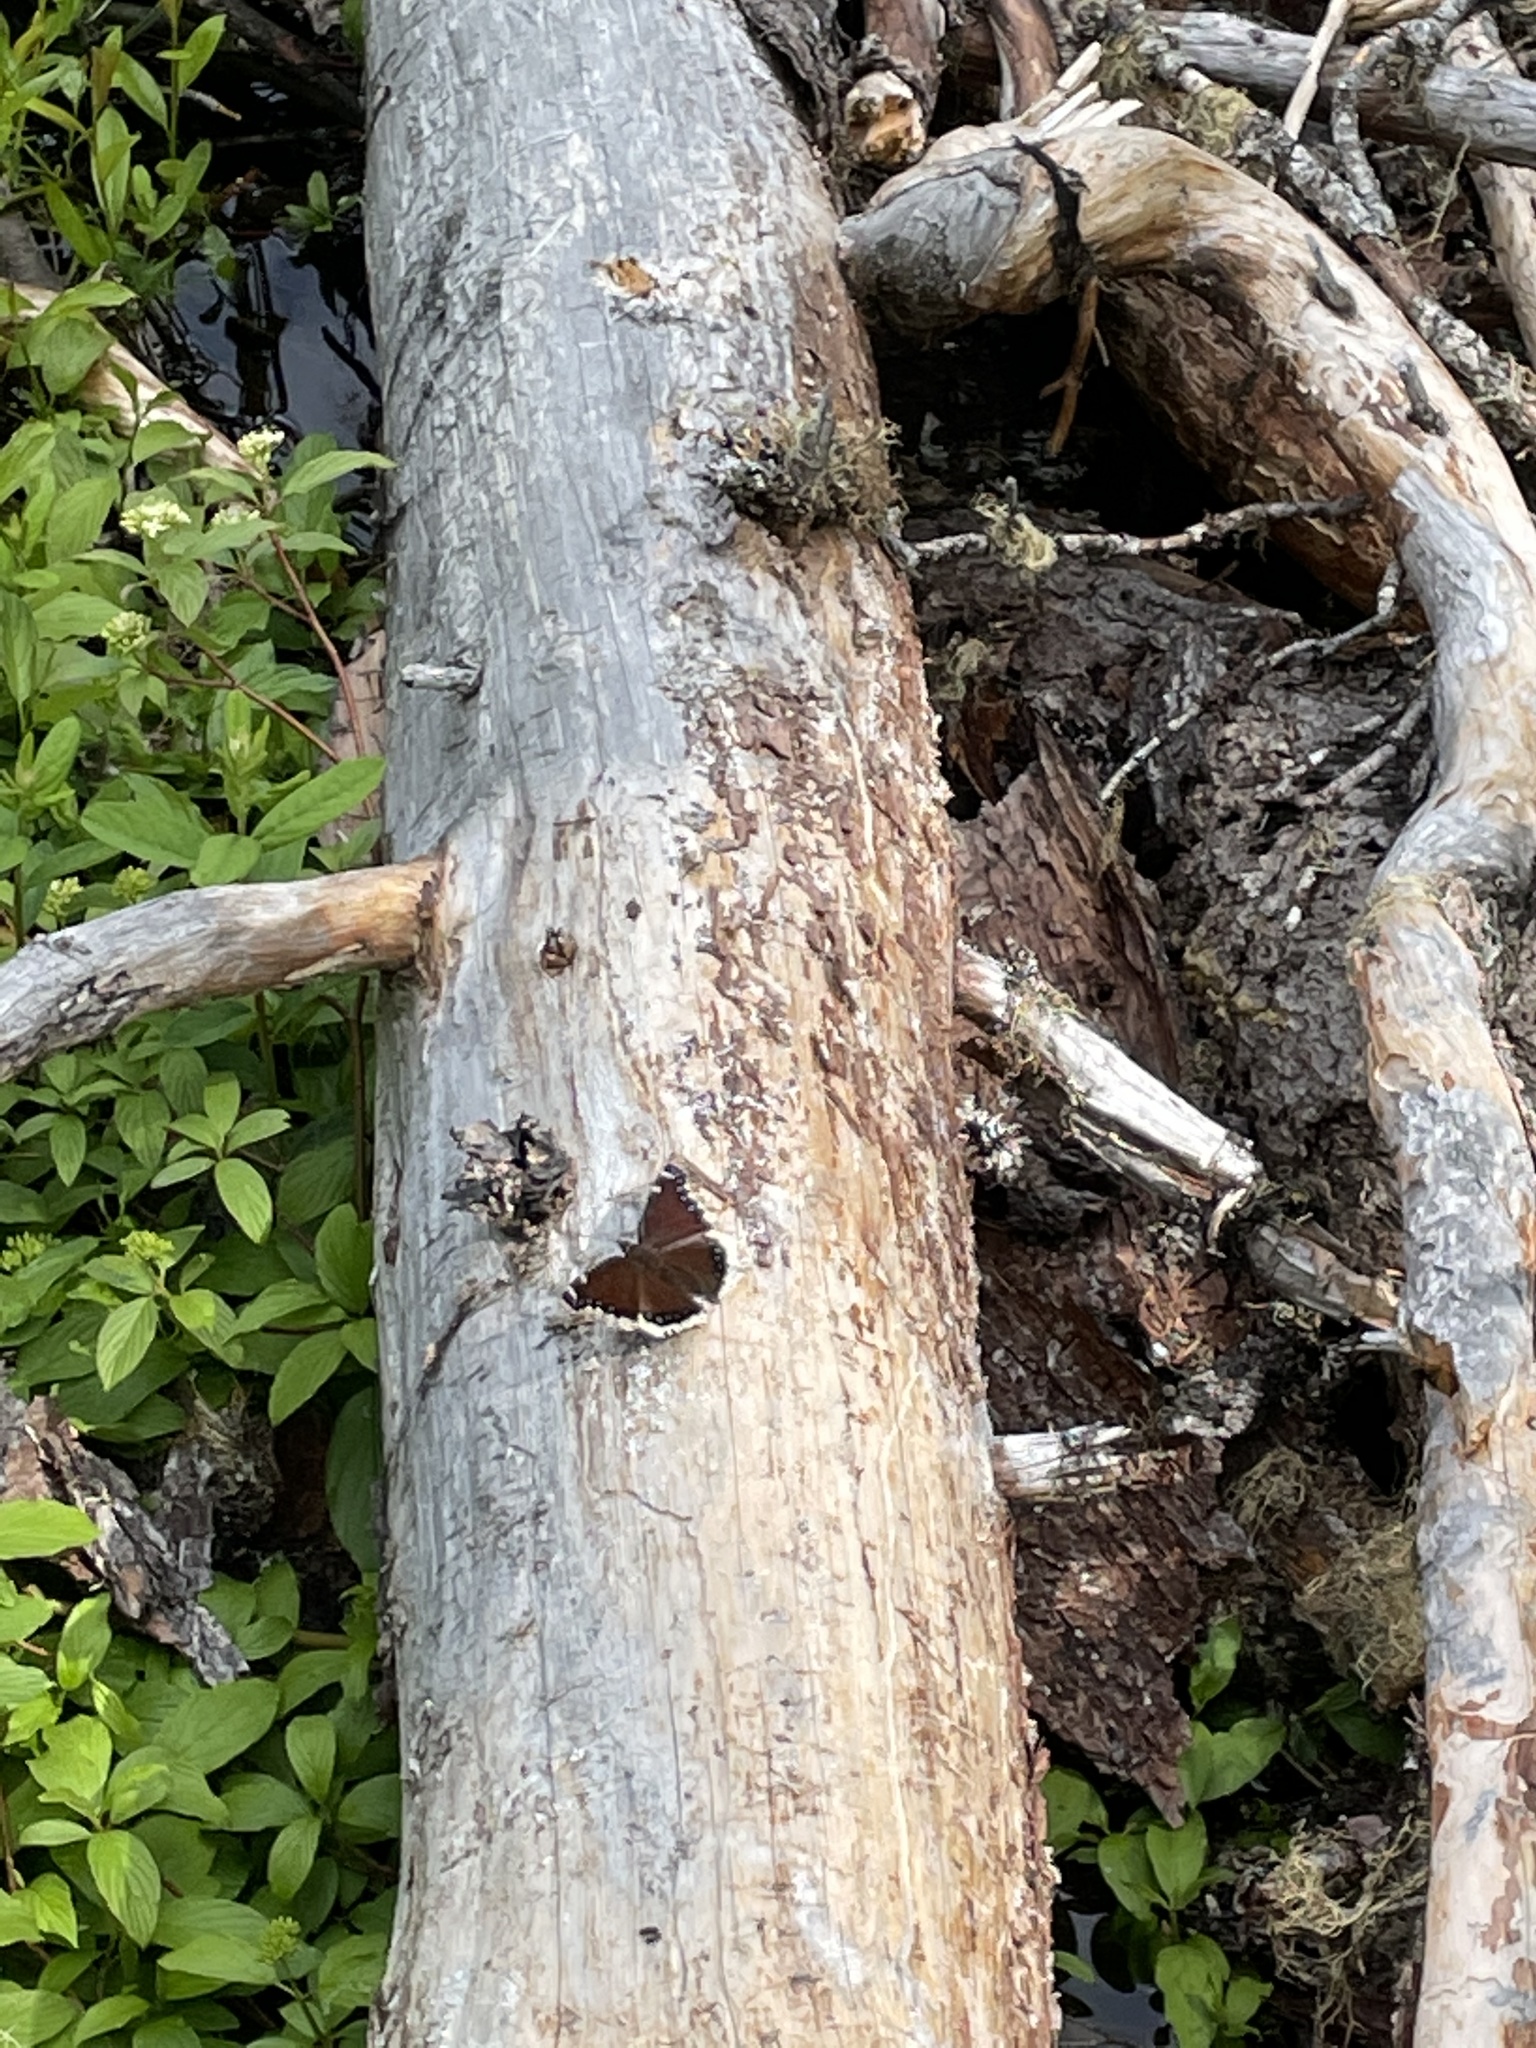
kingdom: Animalia
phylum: Arthropoda
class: Insecta
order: Lepidoptera
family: Nymphalidae
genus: Nymphalis
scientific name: Nymphalis antiopa
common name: Camberwell beauty
